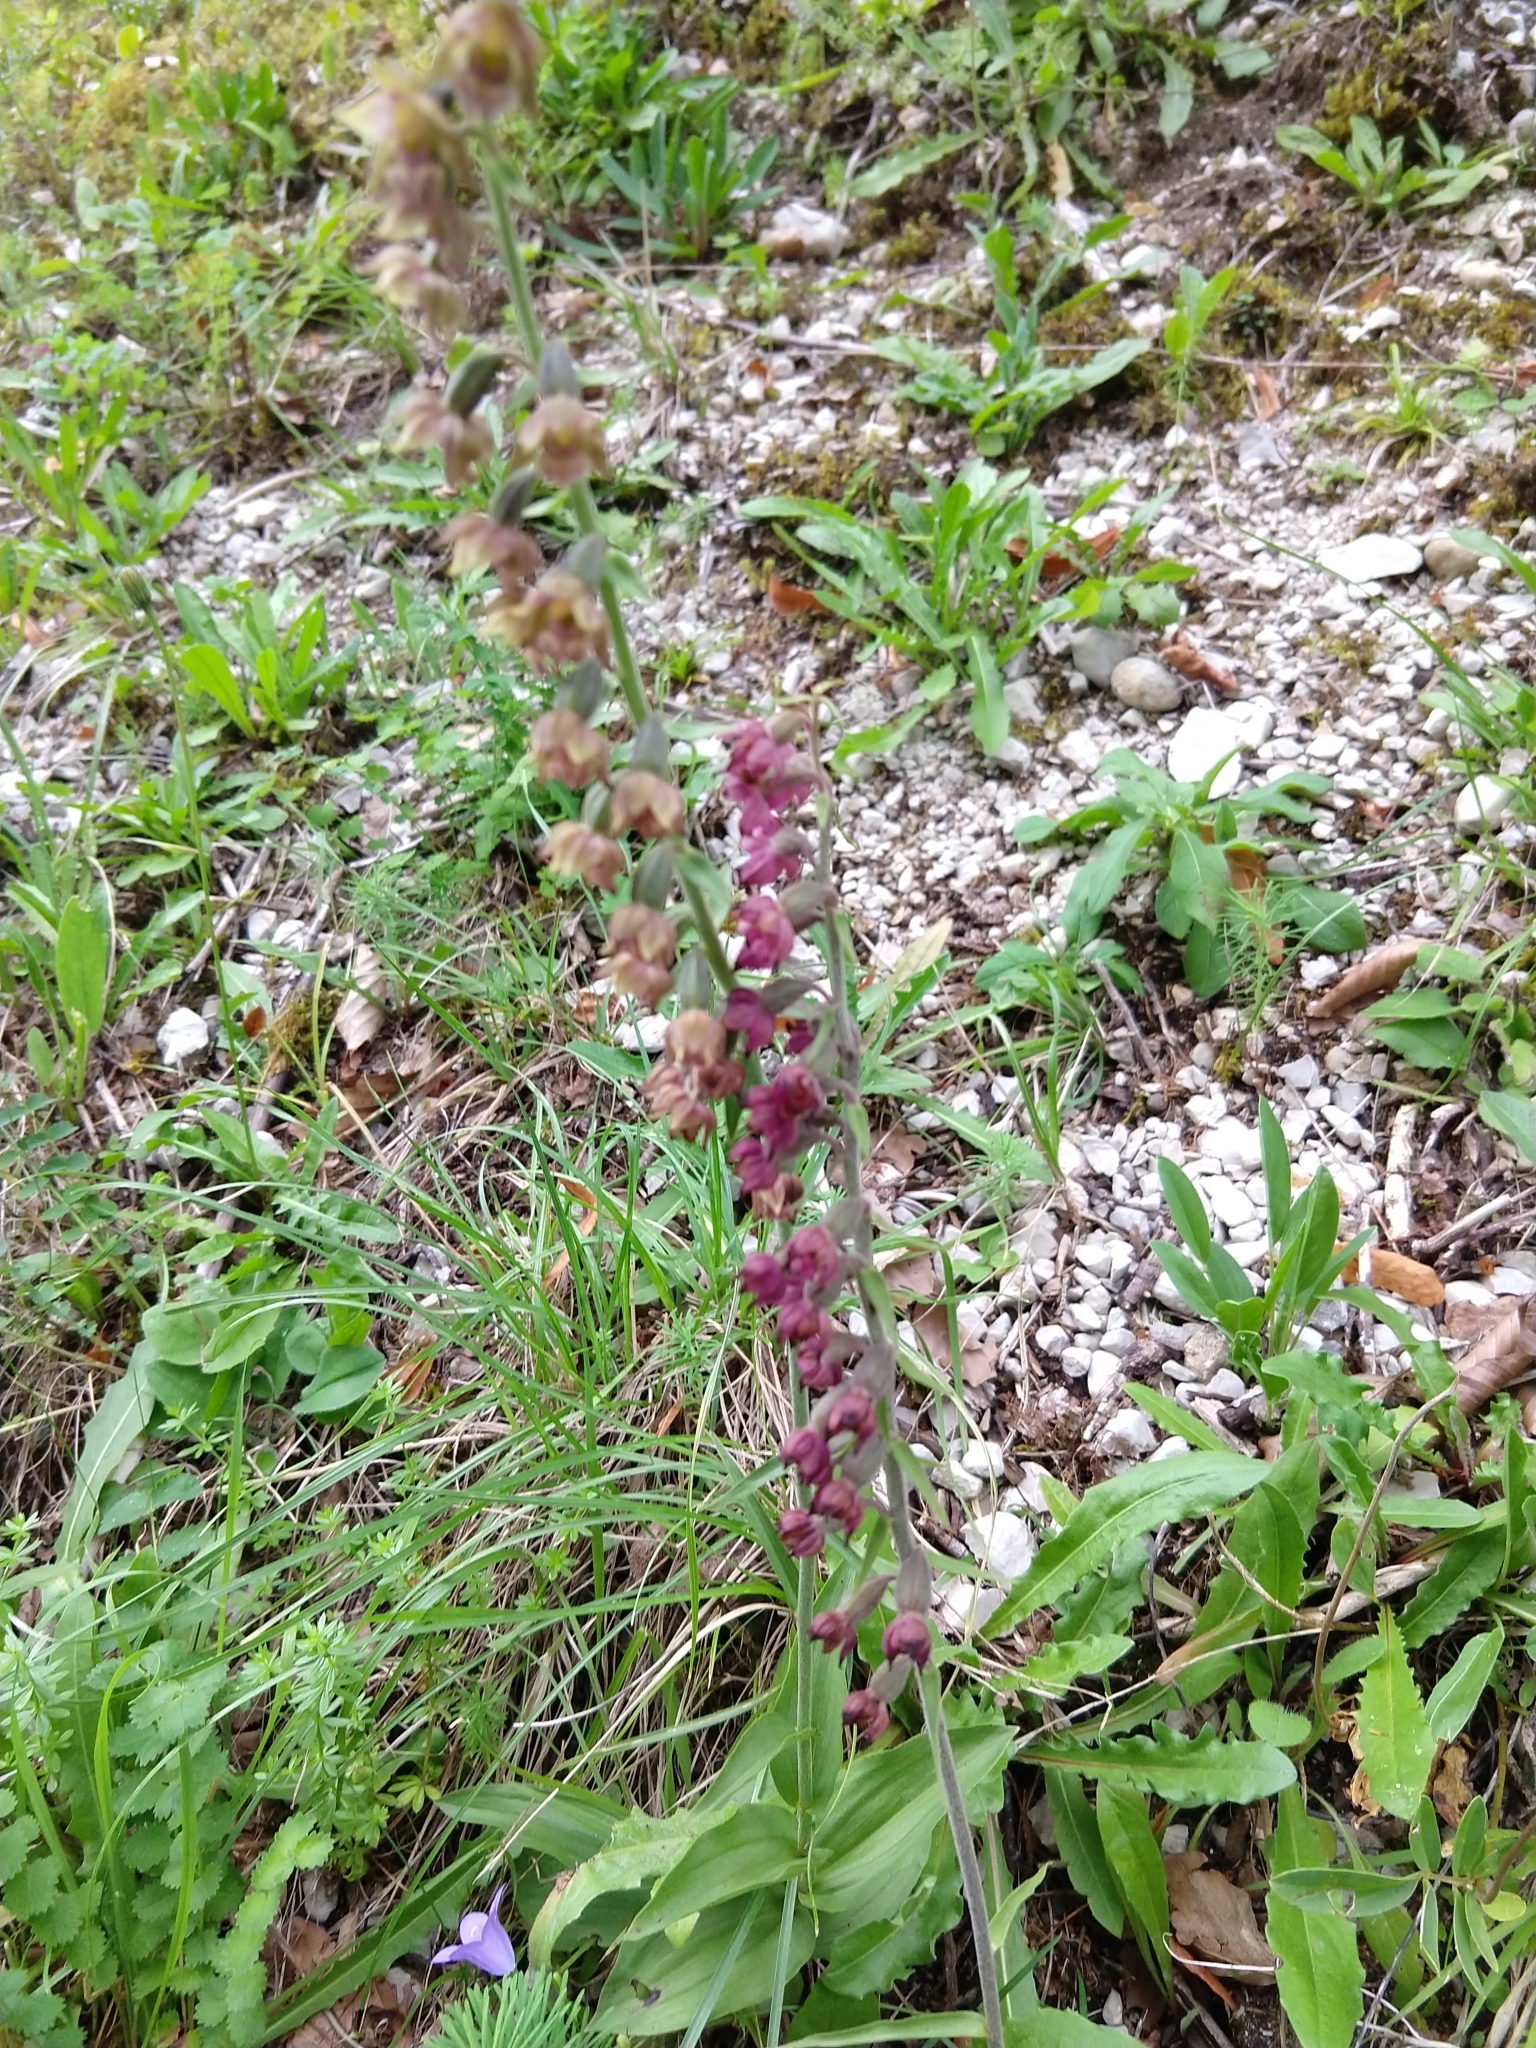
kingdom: Plantae
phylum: Tracheophyta
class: Liliopsida
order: Asparagales
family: Orchidaceae
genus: Epipactis
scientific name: Epipactis atrorubens
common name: Dark-red helleborine
